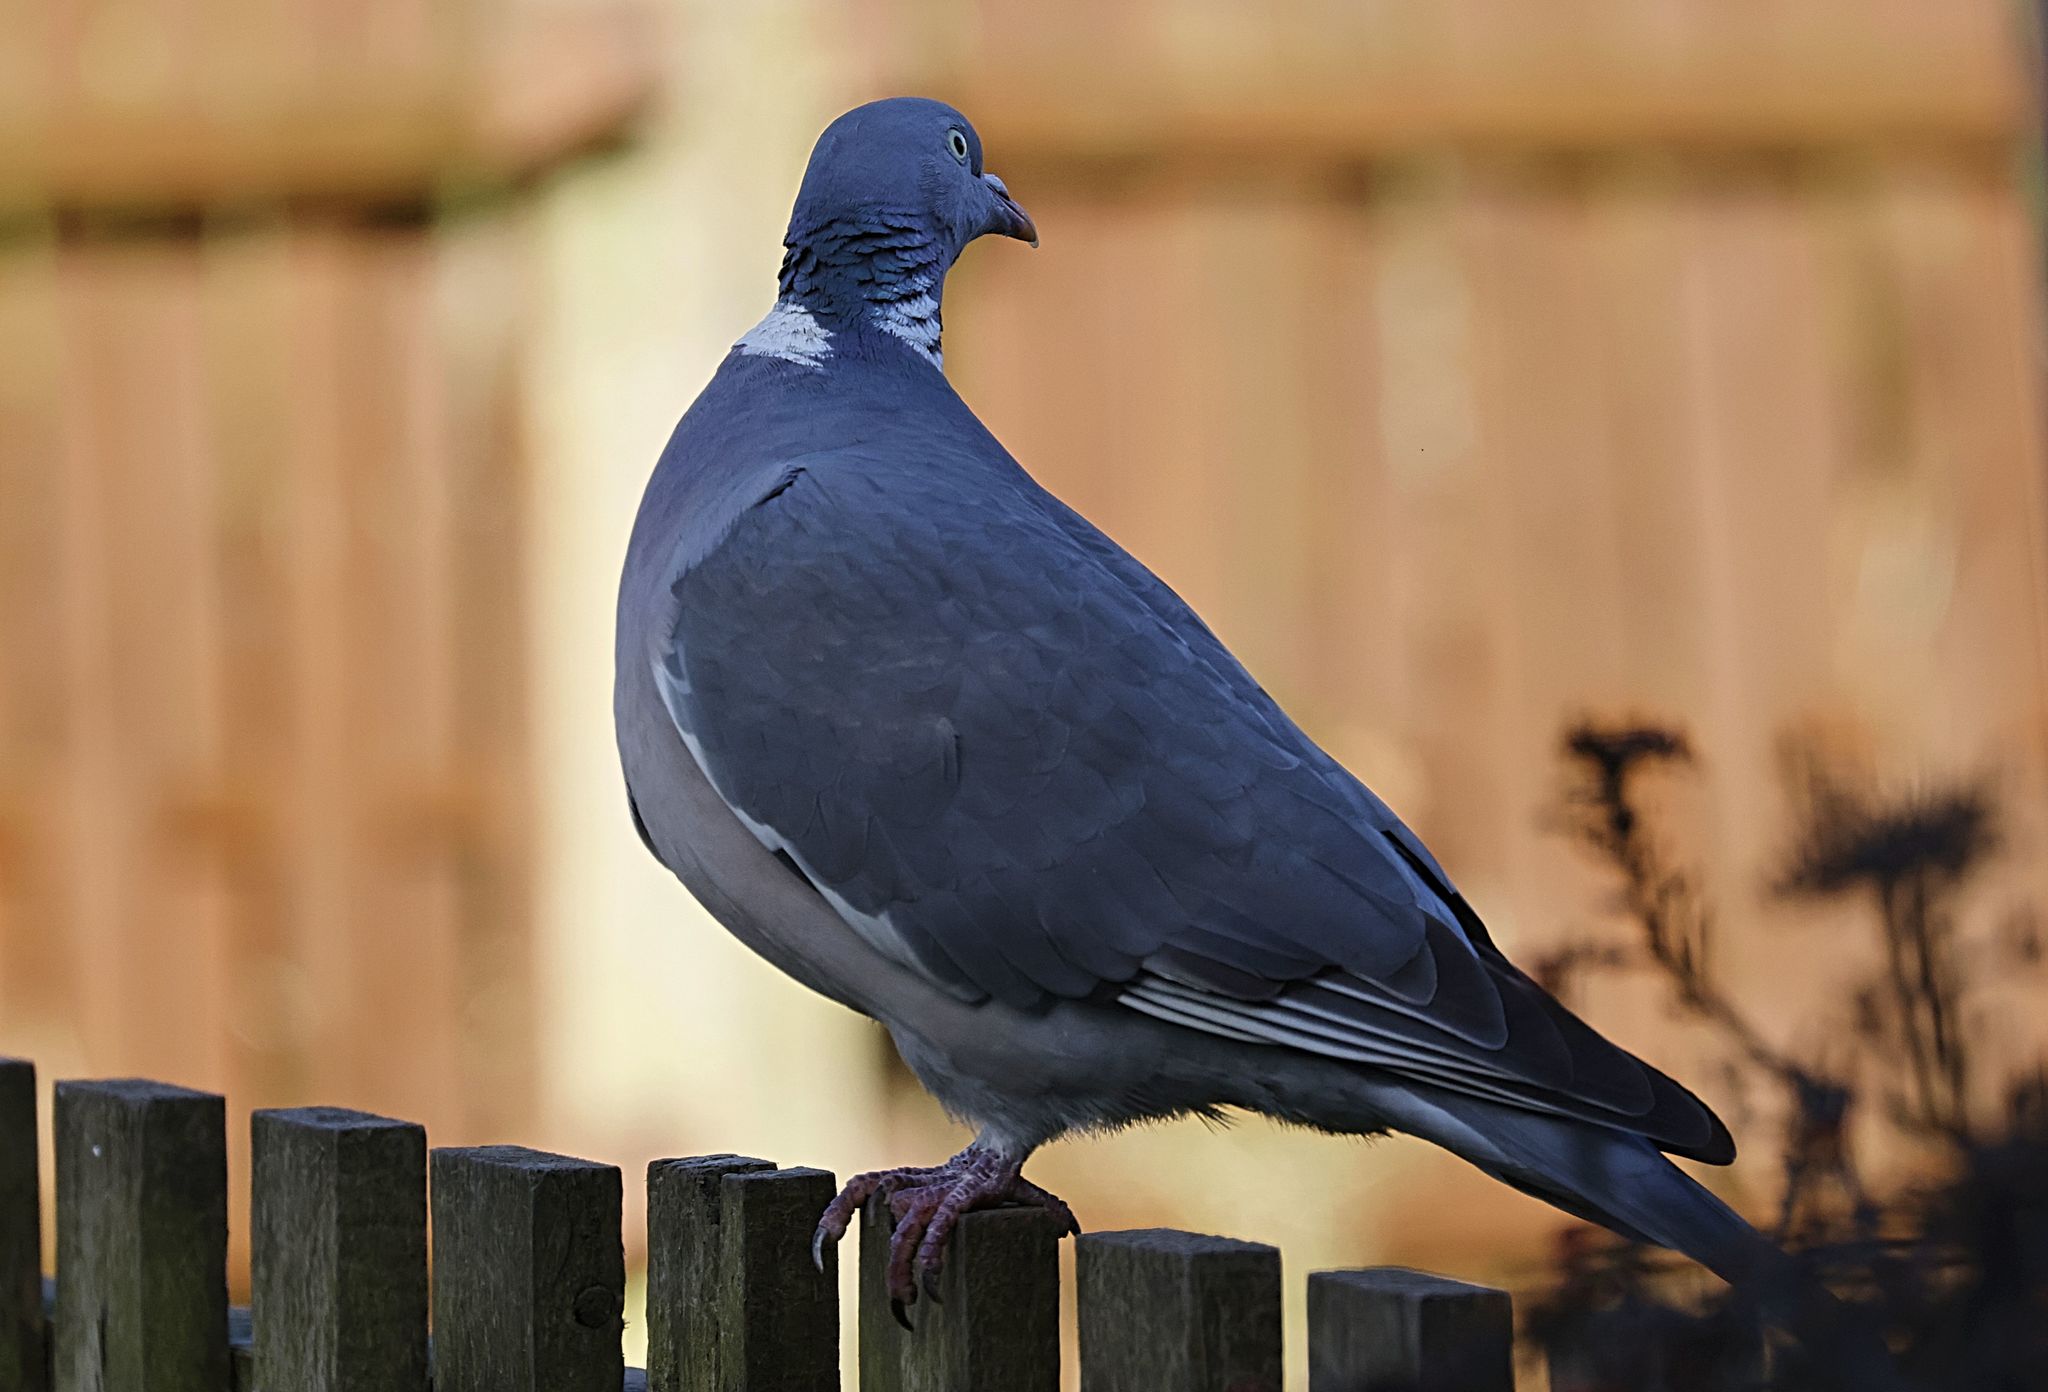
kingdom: Animalia
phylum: Chordata
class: Aves
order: Columbiformes
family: Columbidae
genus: Columba
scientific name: Columba palumbus
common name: Common wood pigeon
